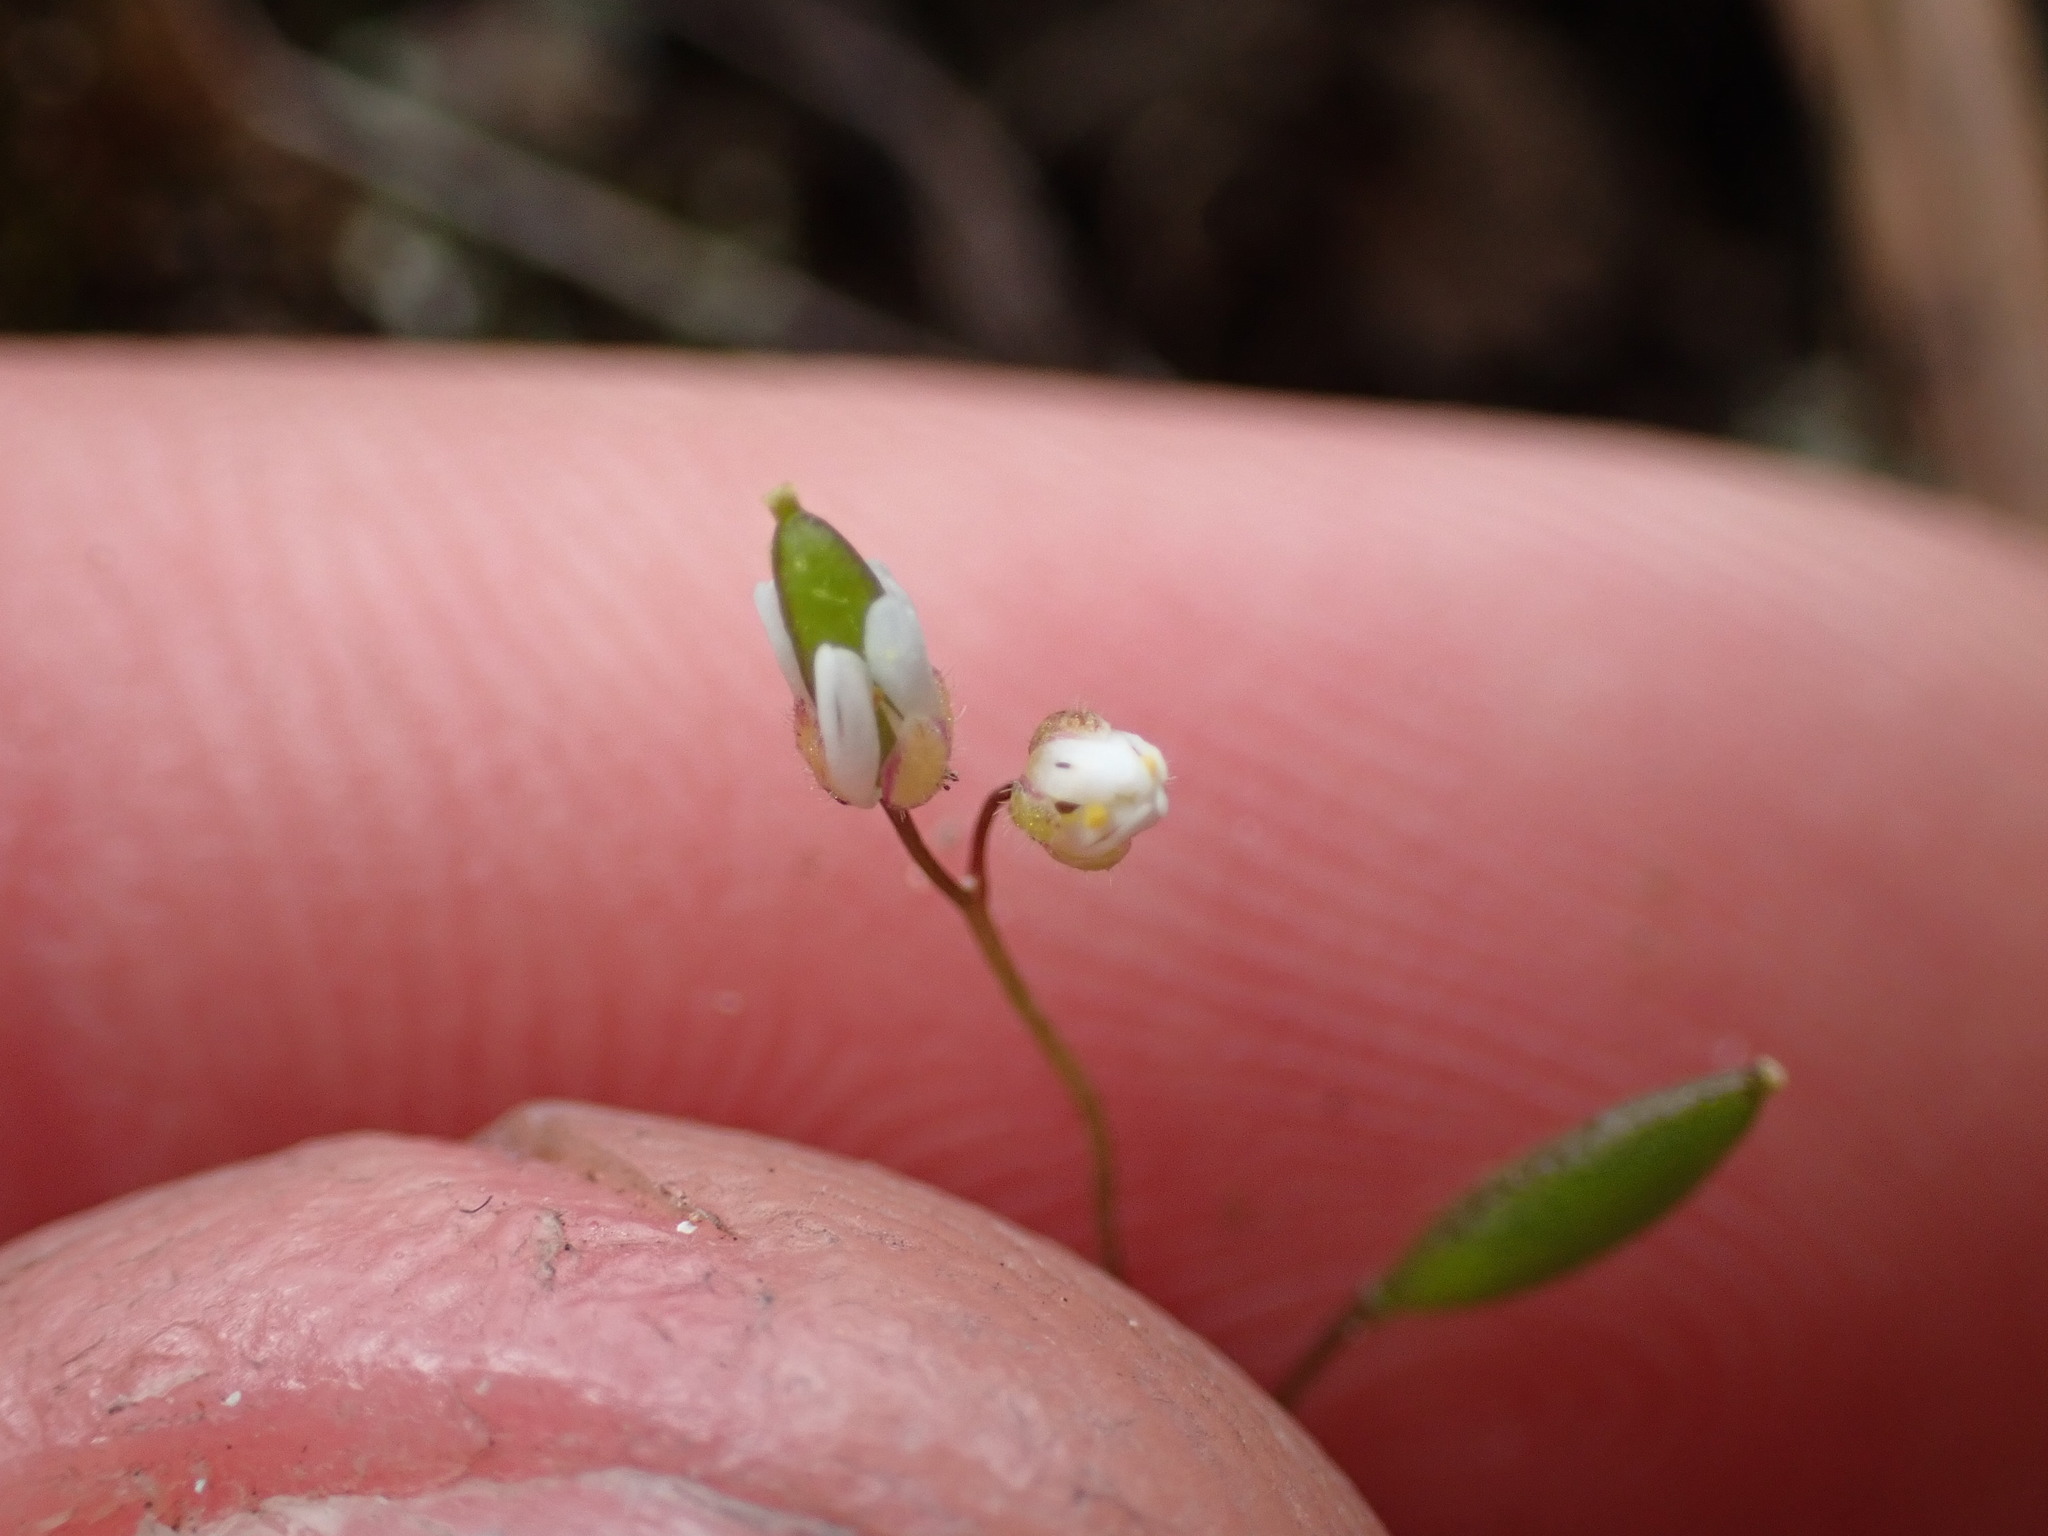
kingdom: Plantae
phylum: Tracheophyta
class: Magnoliopsida
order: Brassicales
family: Brassicaceae
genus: Draba
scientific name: Draba verna
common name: Spring draba
